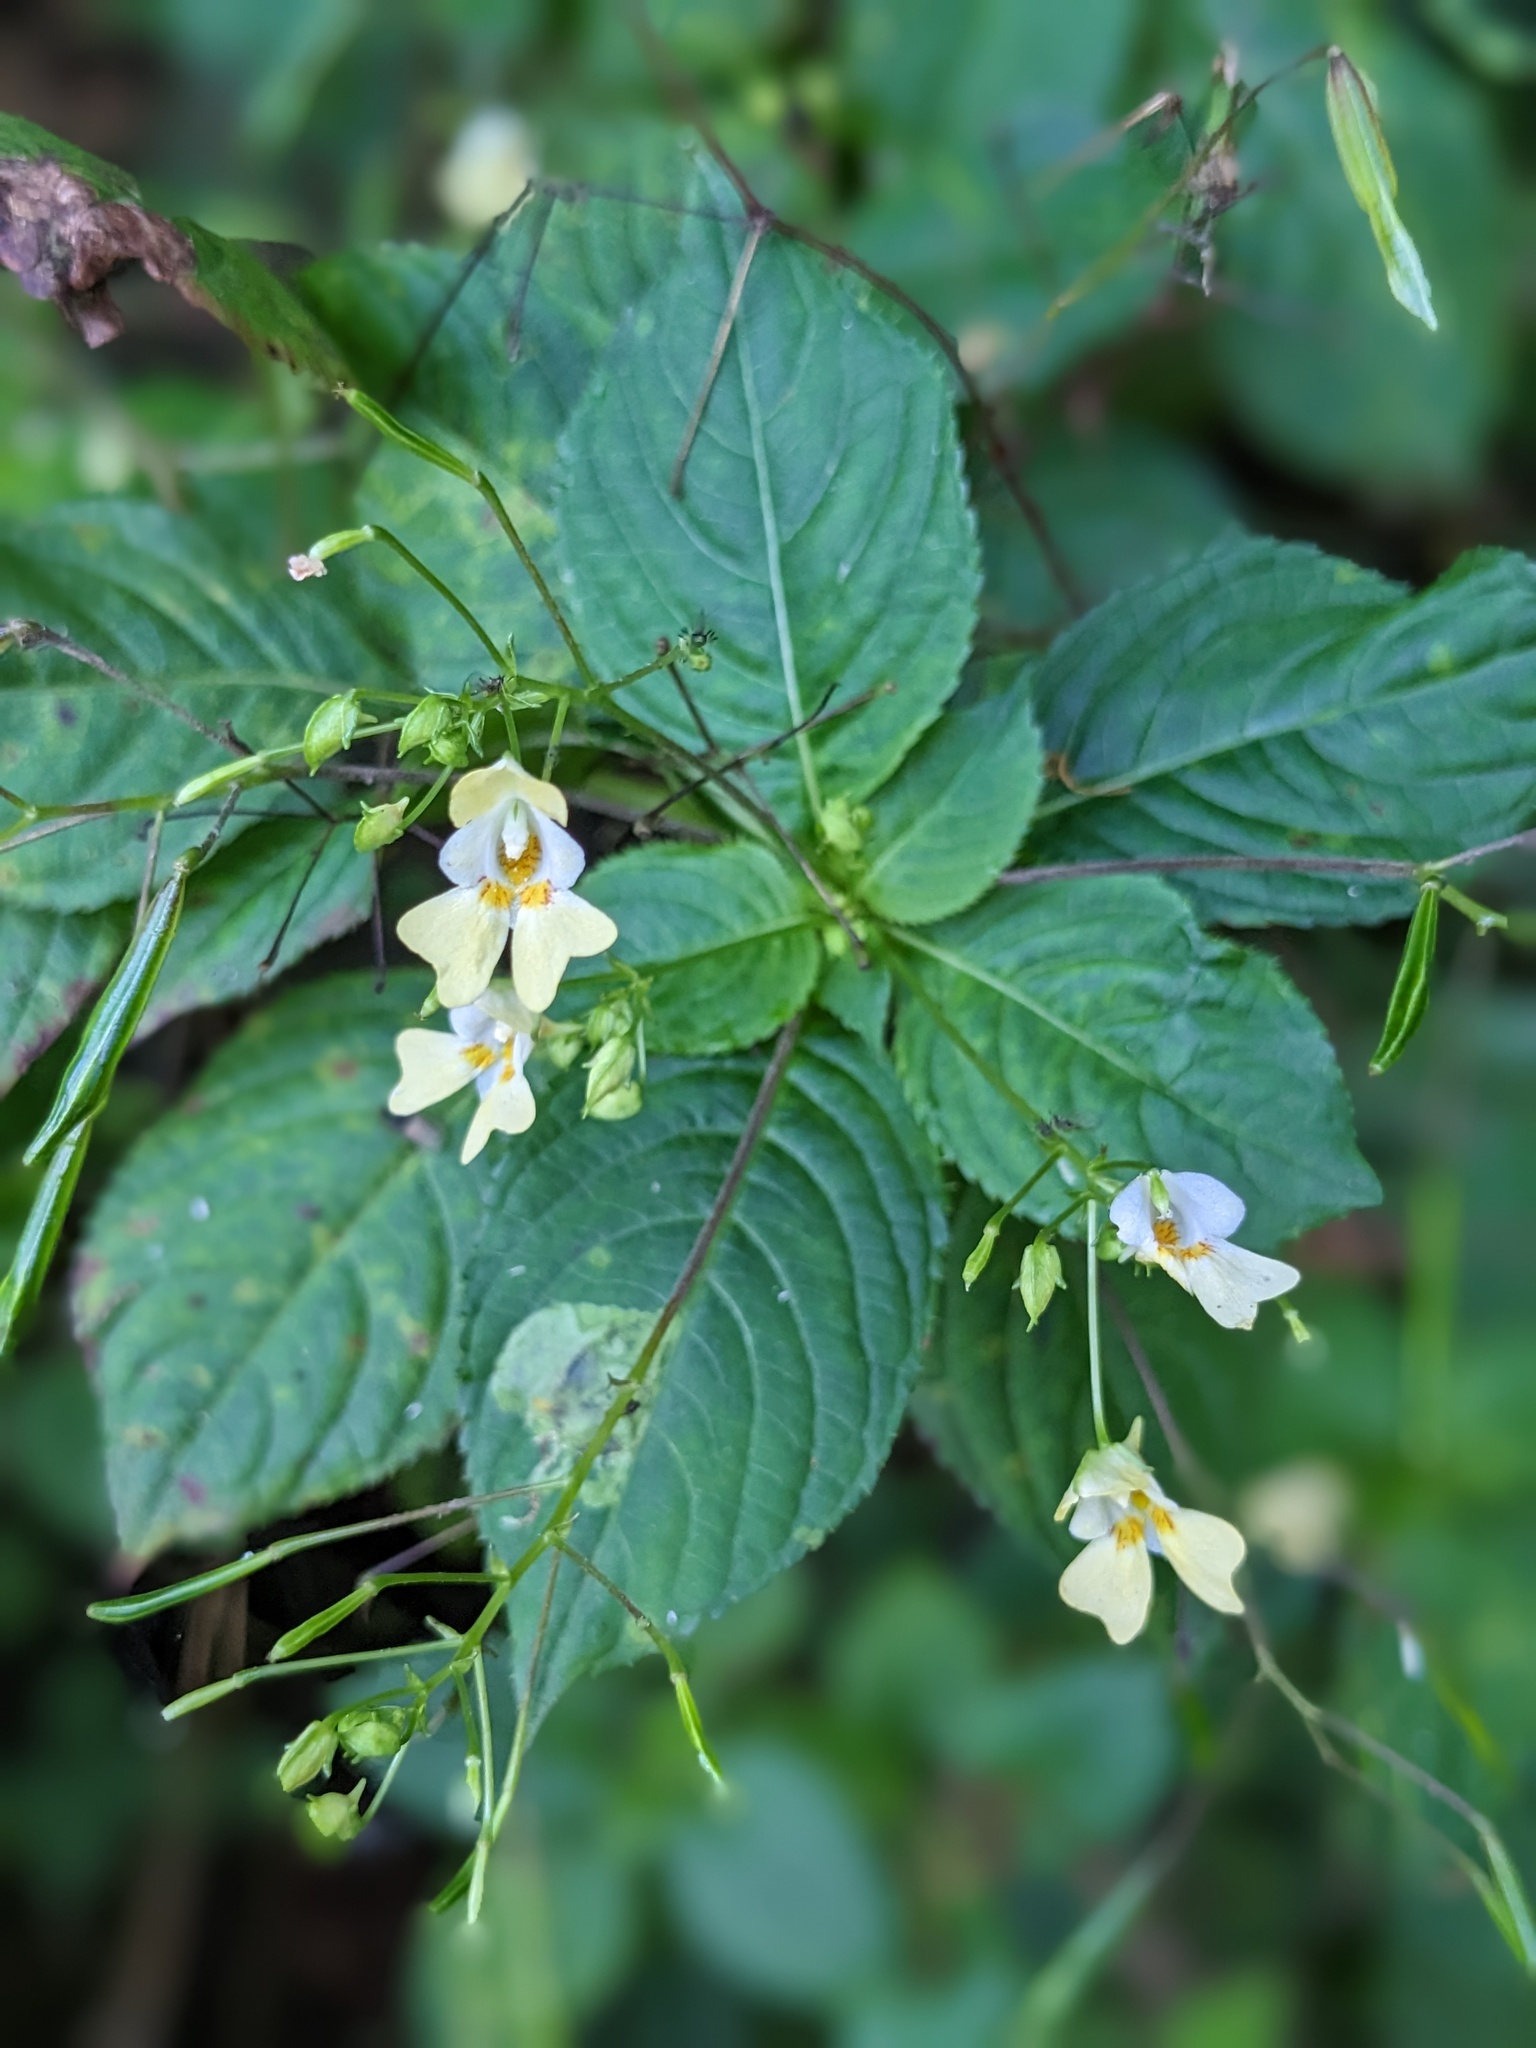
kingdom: Plantae
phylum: Tracheophyta
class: Magnoliopsida
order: Ericales
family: Balsaminaceae
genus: Impatiens
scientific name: Impatiens parviflora
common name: Small balsam
